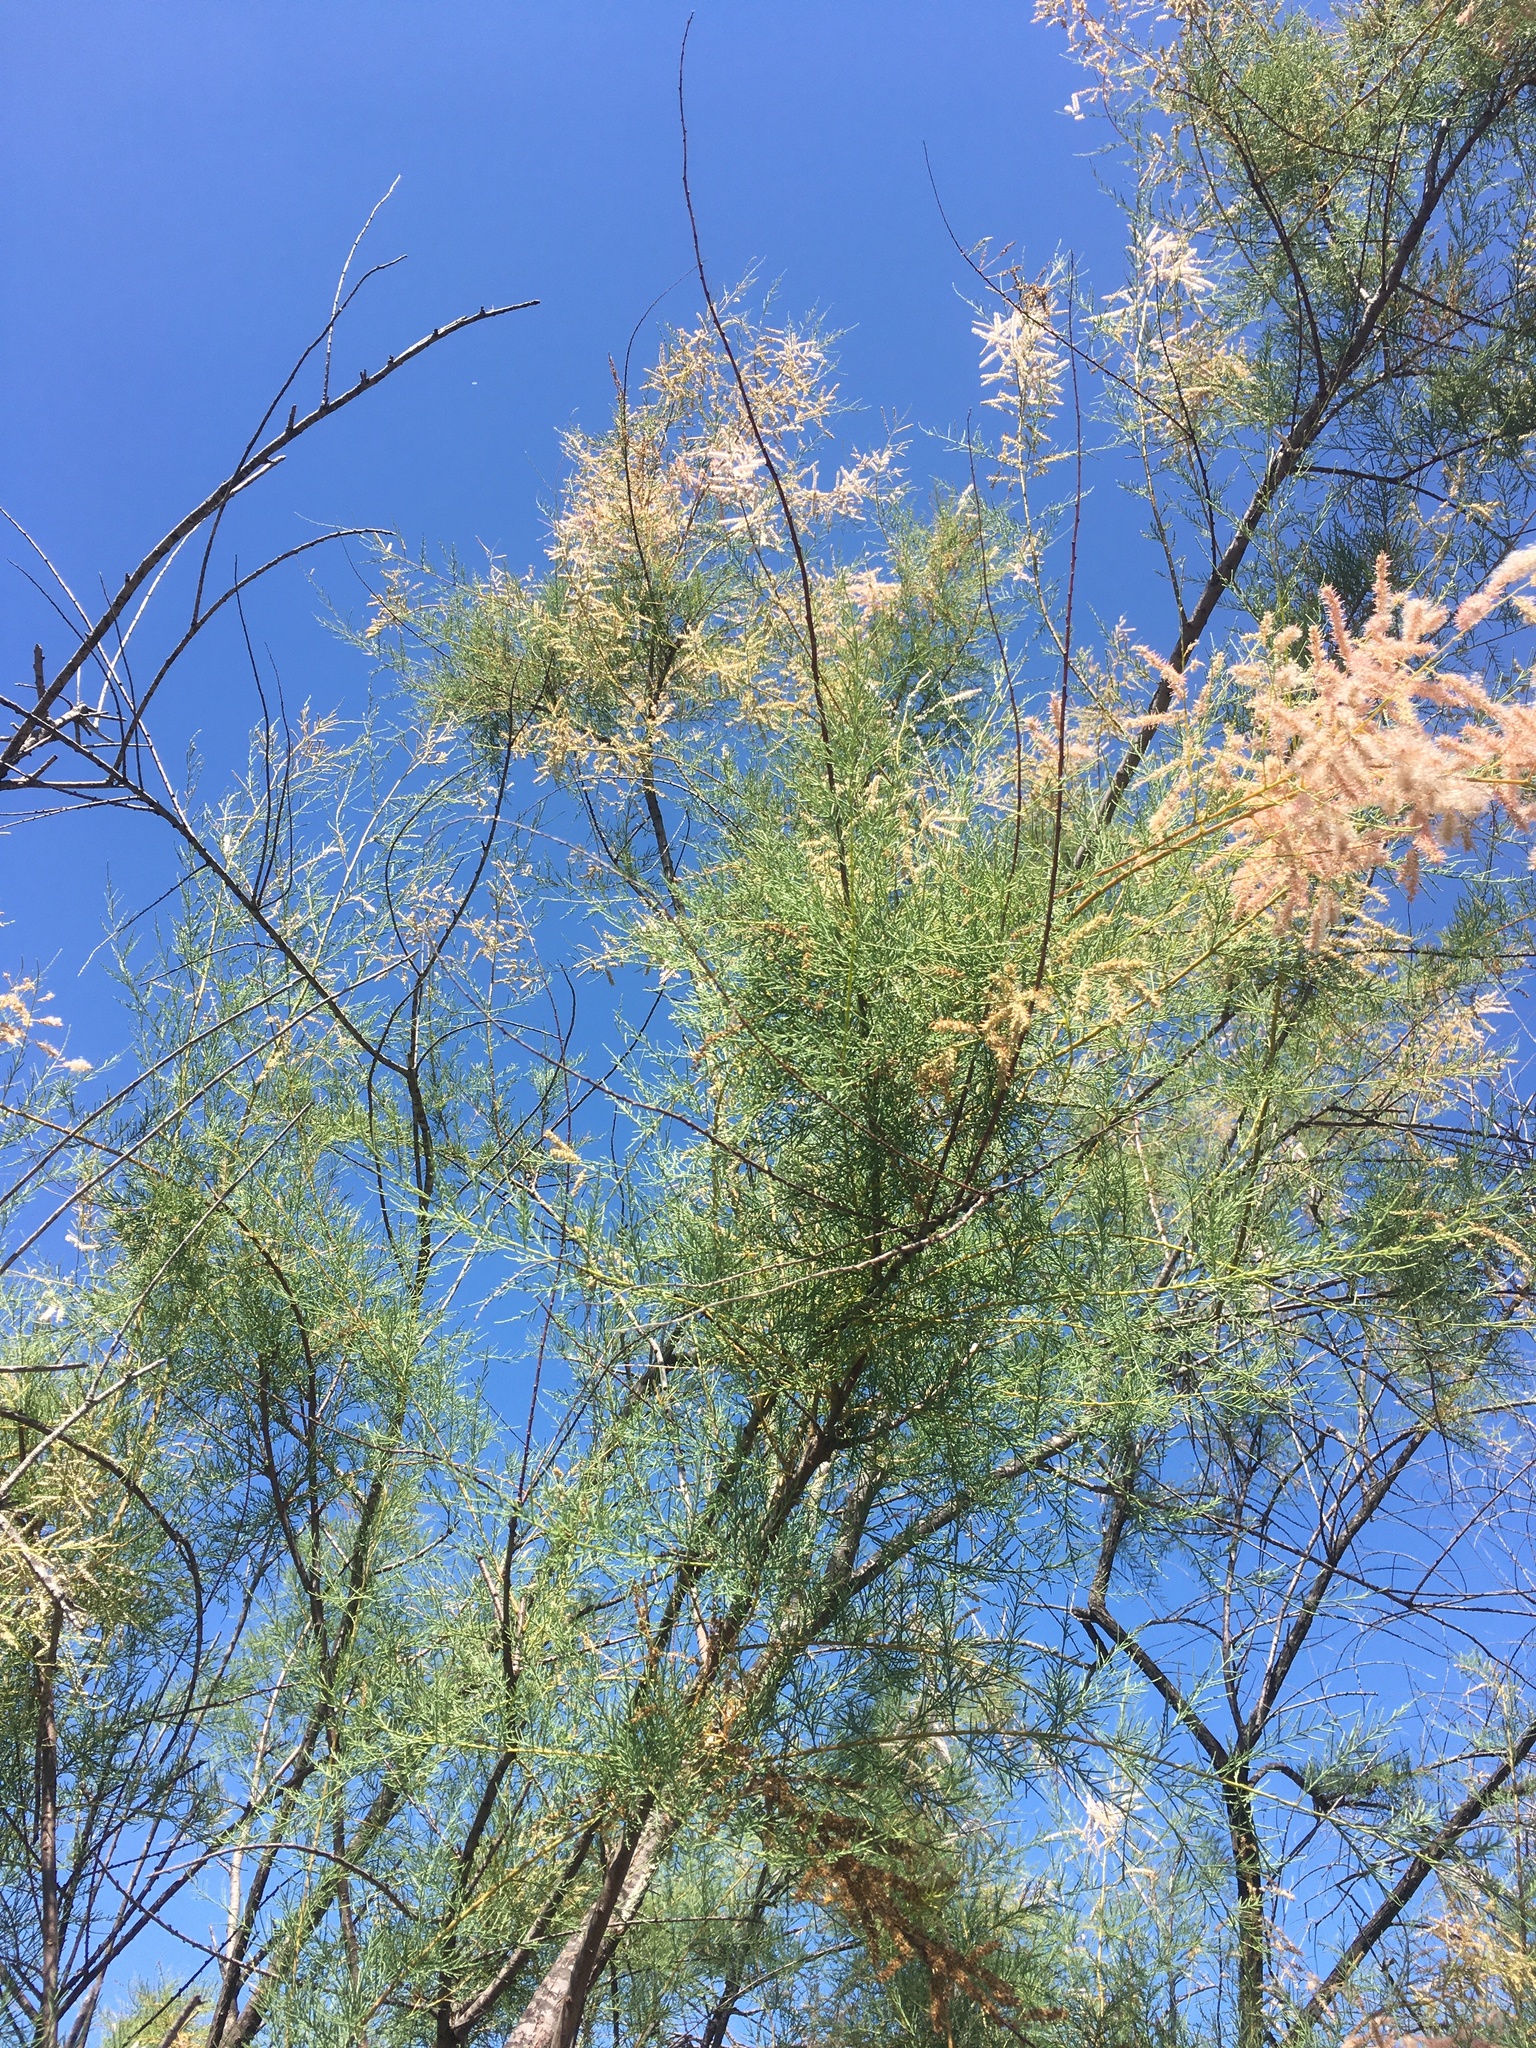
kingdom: Plantae
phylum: Tracheophyta
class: Magnoliopsida
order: Caryophyllales
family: Tamaricaceae
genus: Tamarix
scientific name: Tamarix
